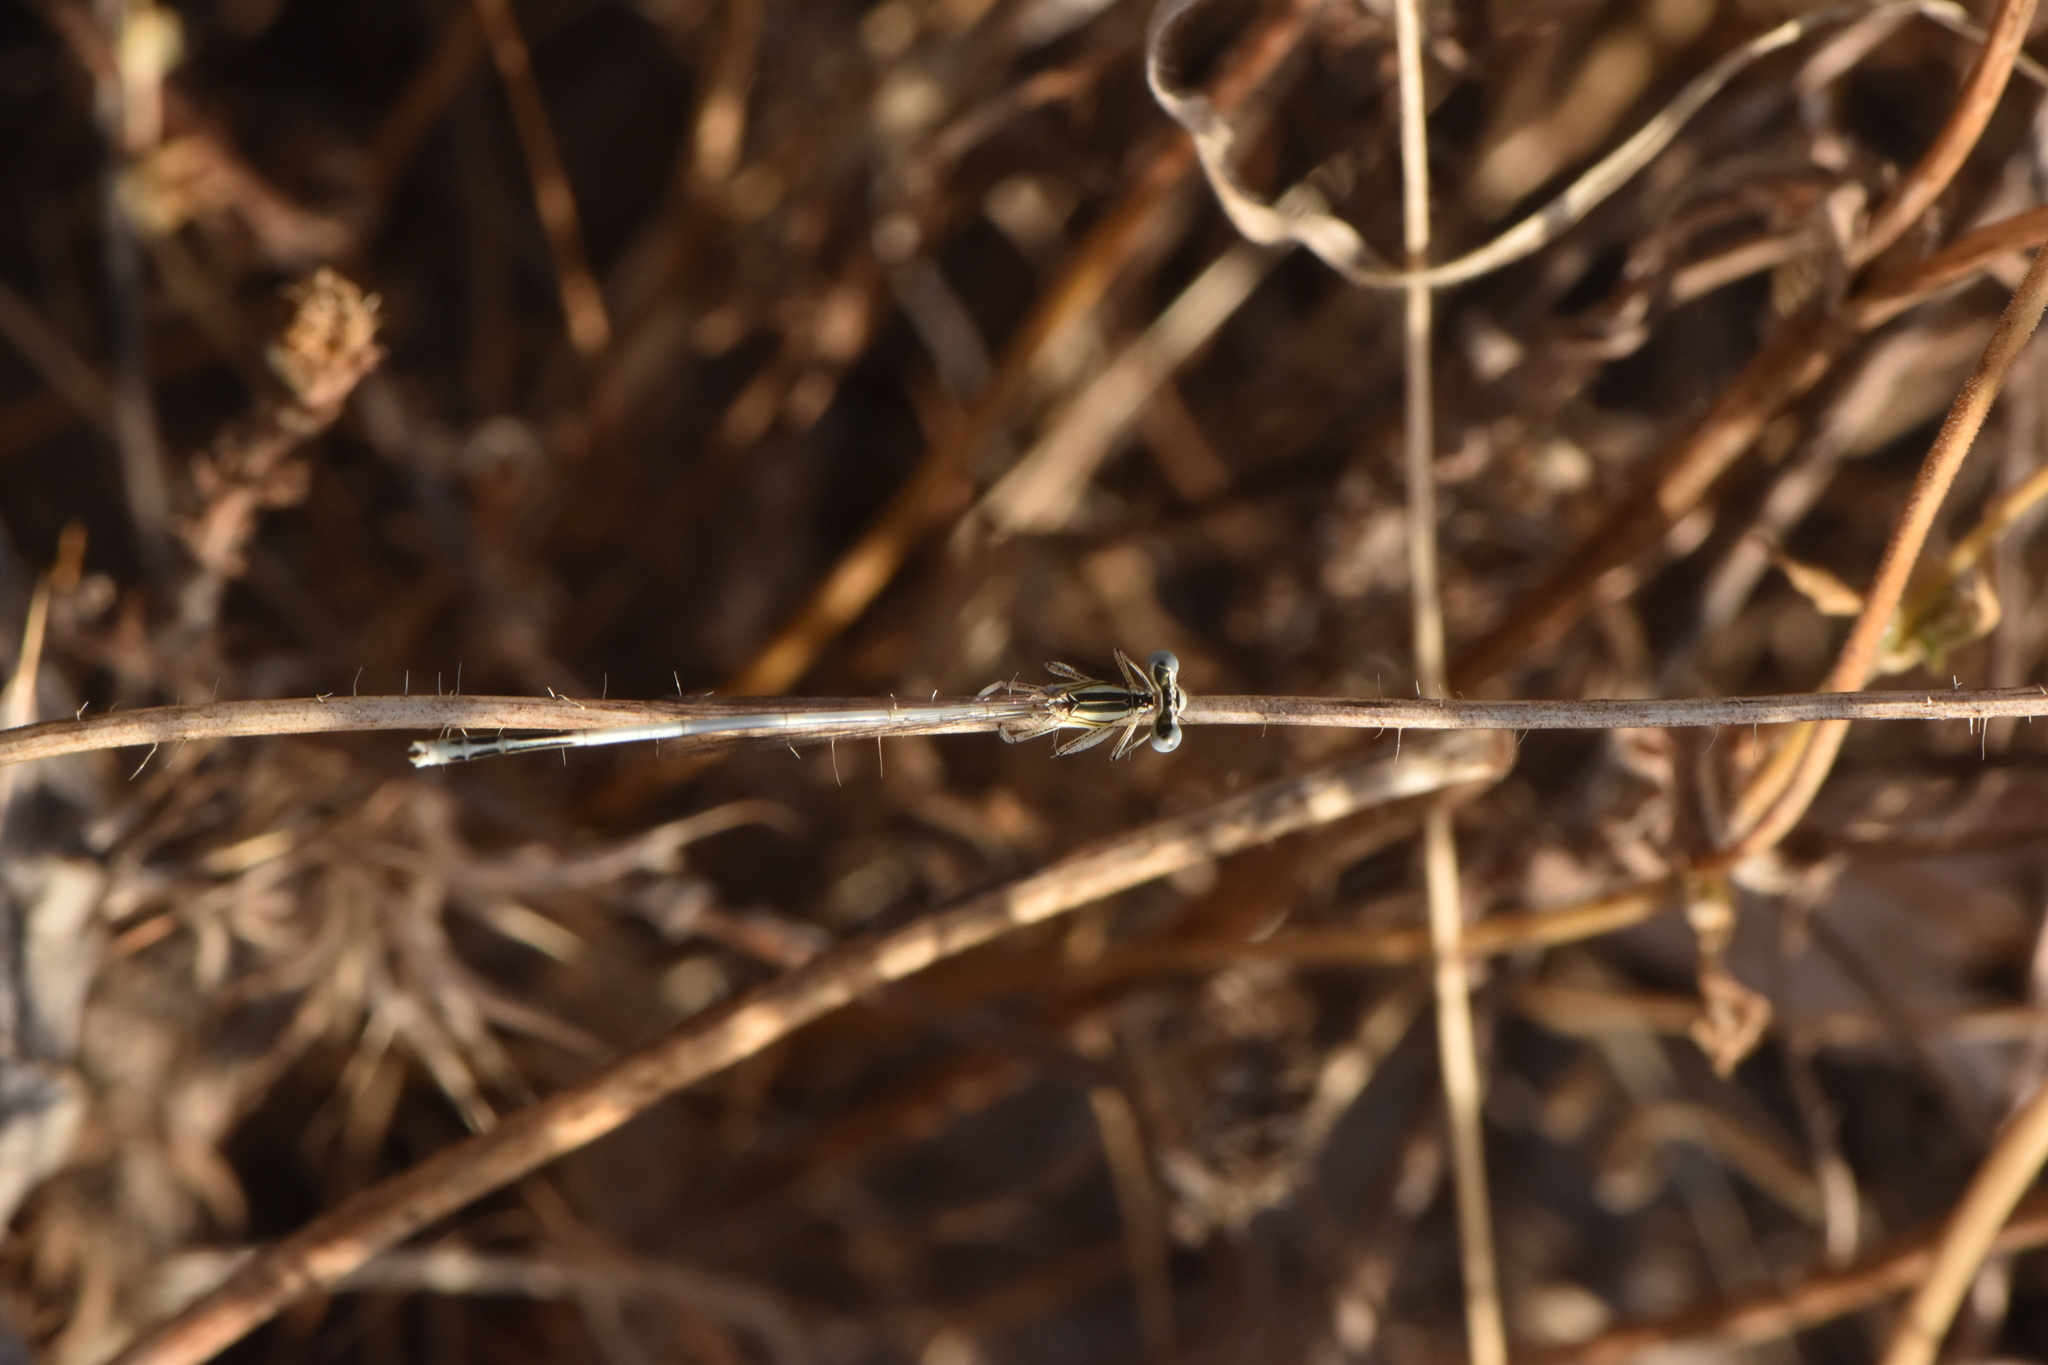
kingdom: Animalia
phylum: Arthropoda
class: Insecta
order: Odonata
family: Platycnemididae
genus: Platycnemis
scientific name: Platycnemis latipes
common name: White featherleg
